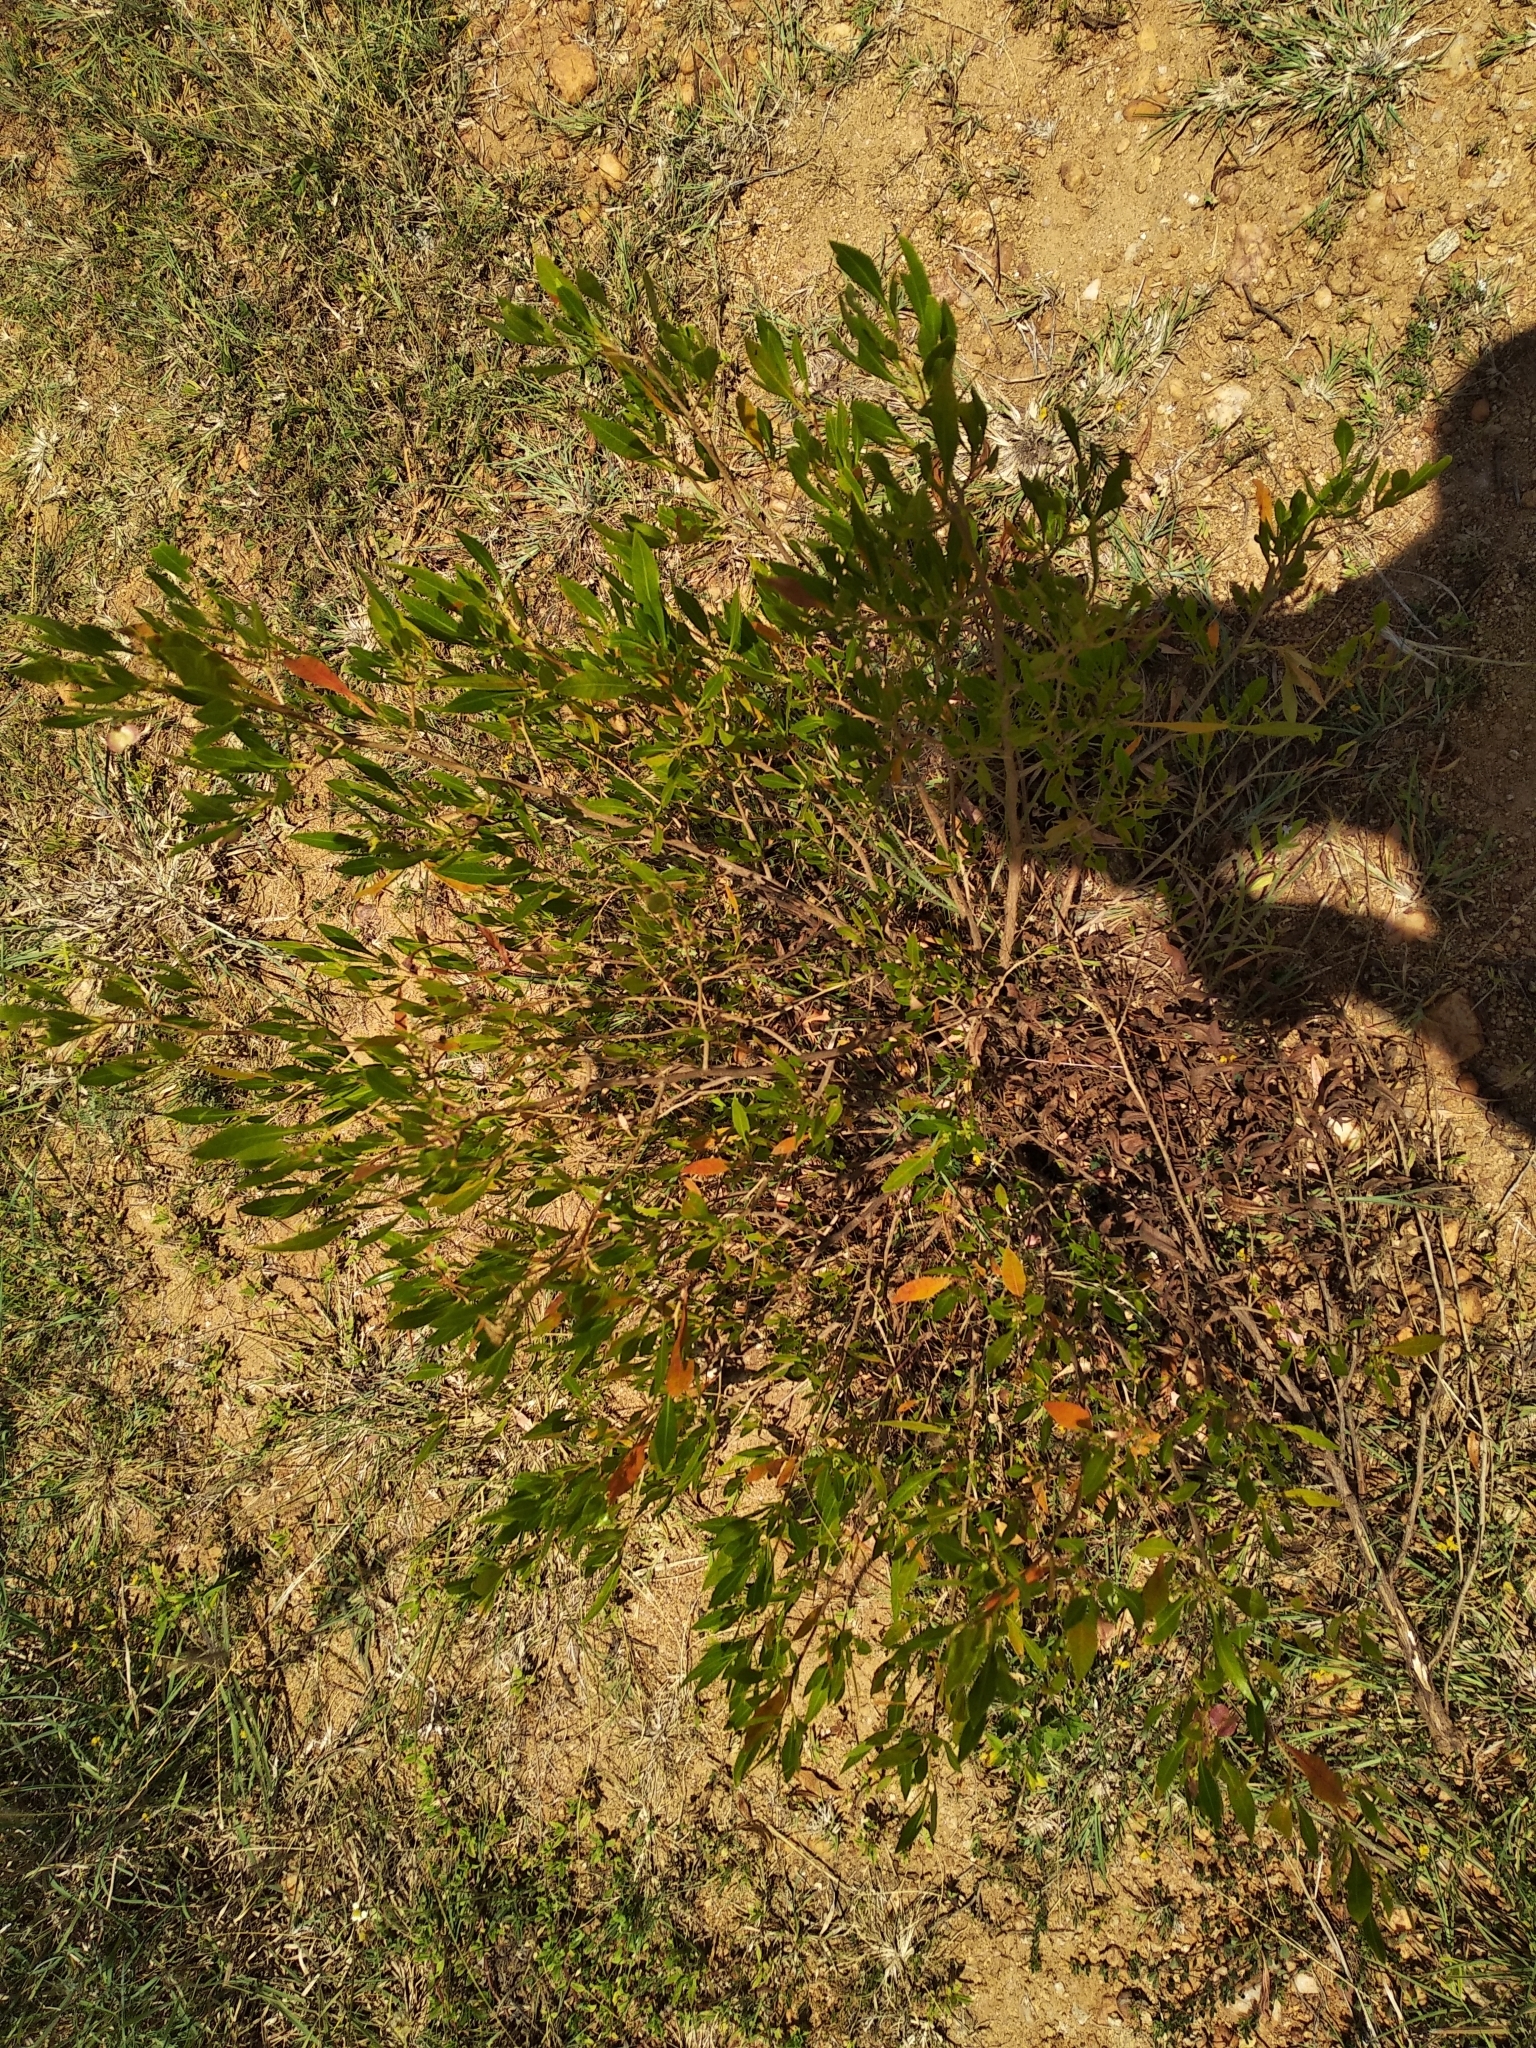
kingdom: Plantae
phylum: Tracheophyta
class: Magnoliopsida
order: Sapindales
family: Sapindaceae
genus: Dodonaea
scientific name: Dodonaea viscosa
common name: Hopbush
